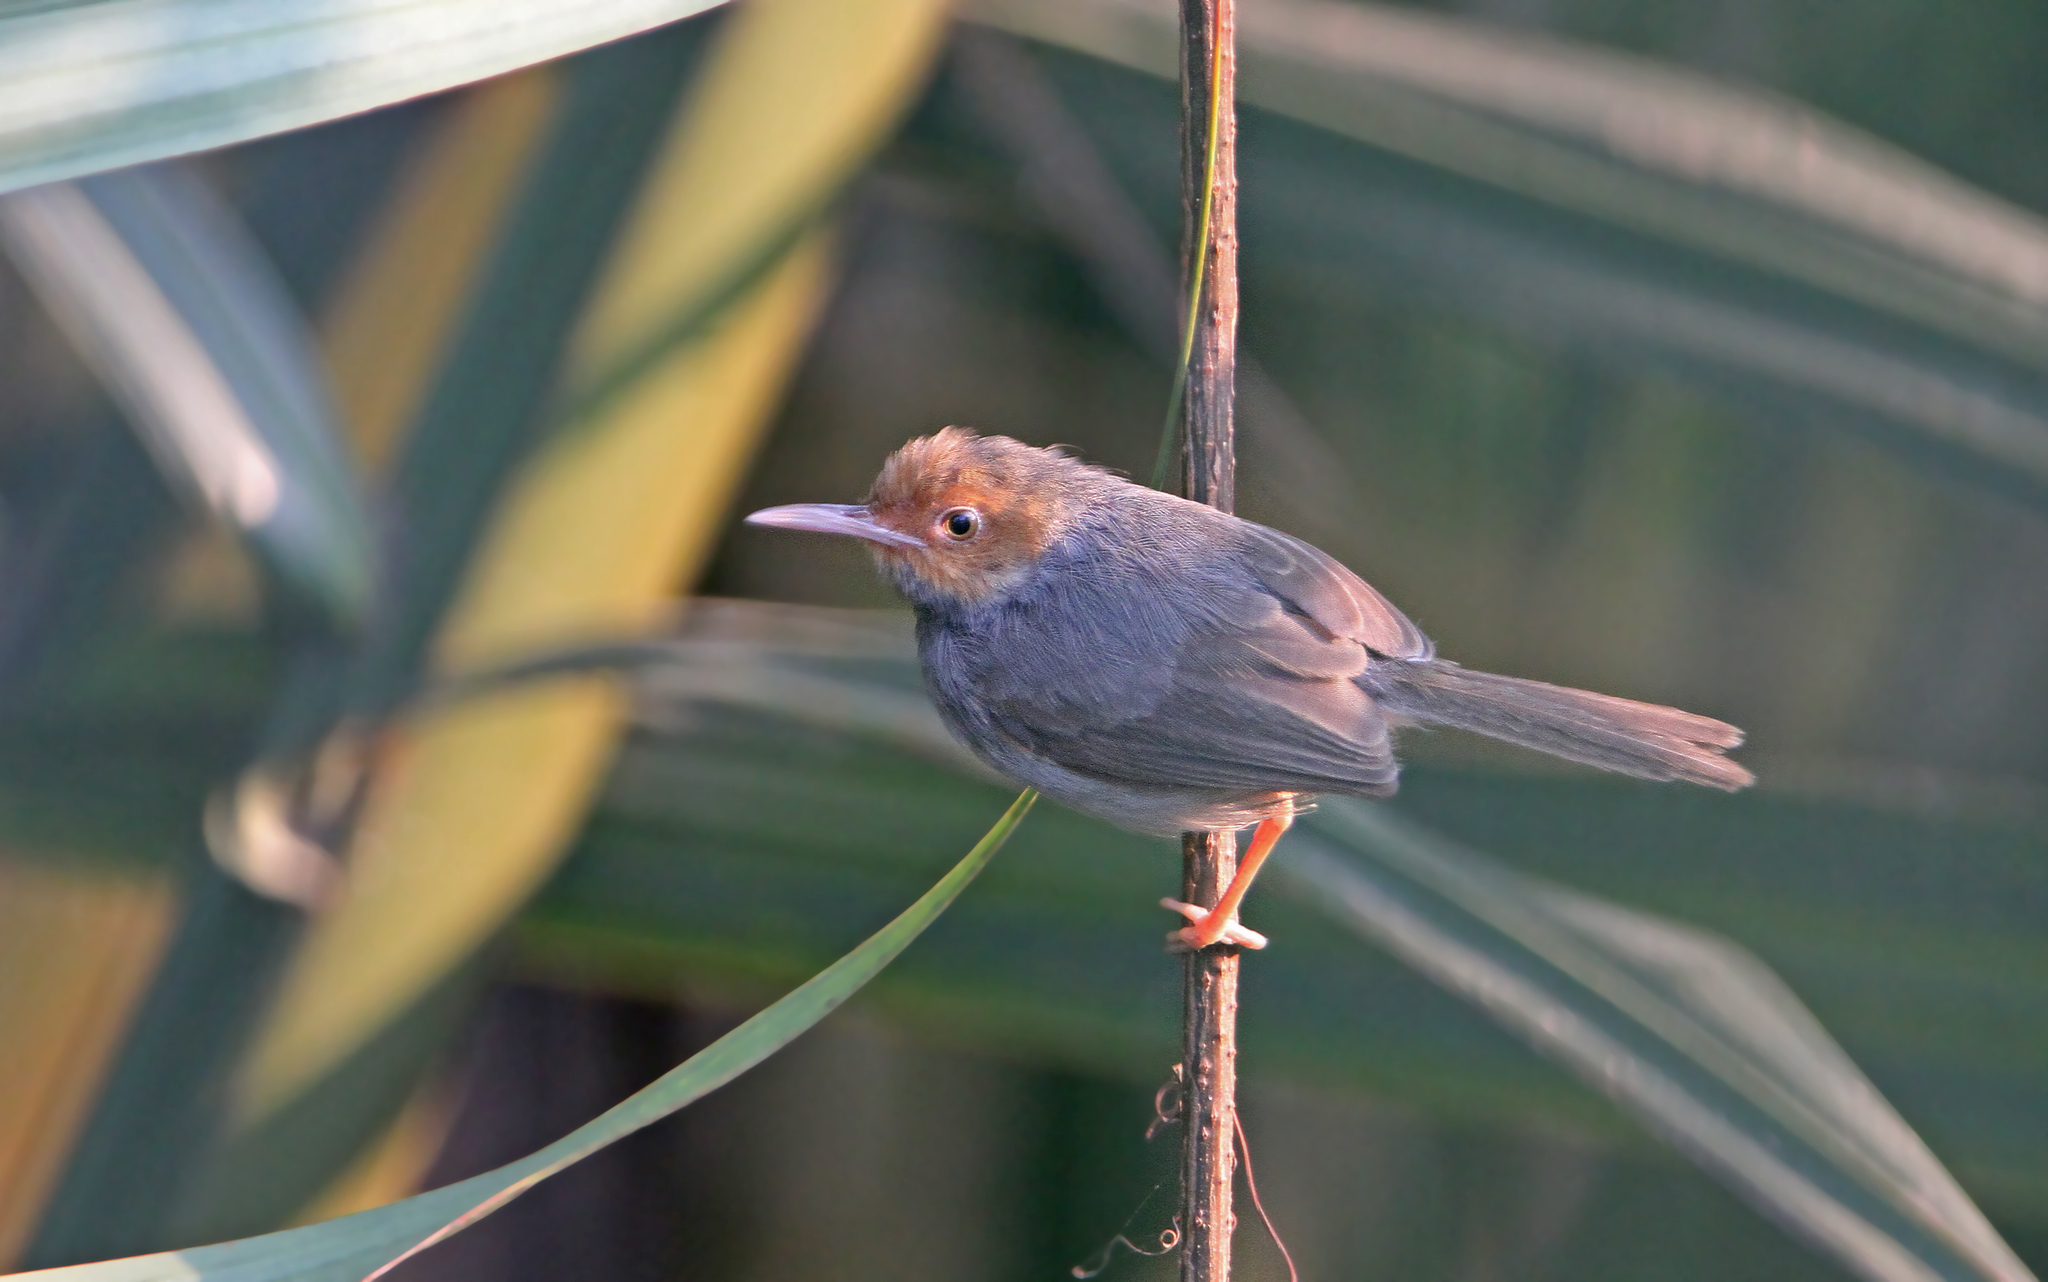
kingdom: Animalia
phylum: Chordata
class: Aves
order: Passeriformes
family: Cisticolidae
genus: Orthotomus
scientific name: Orthotomus ruficeps
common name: Ashy tailorbird
